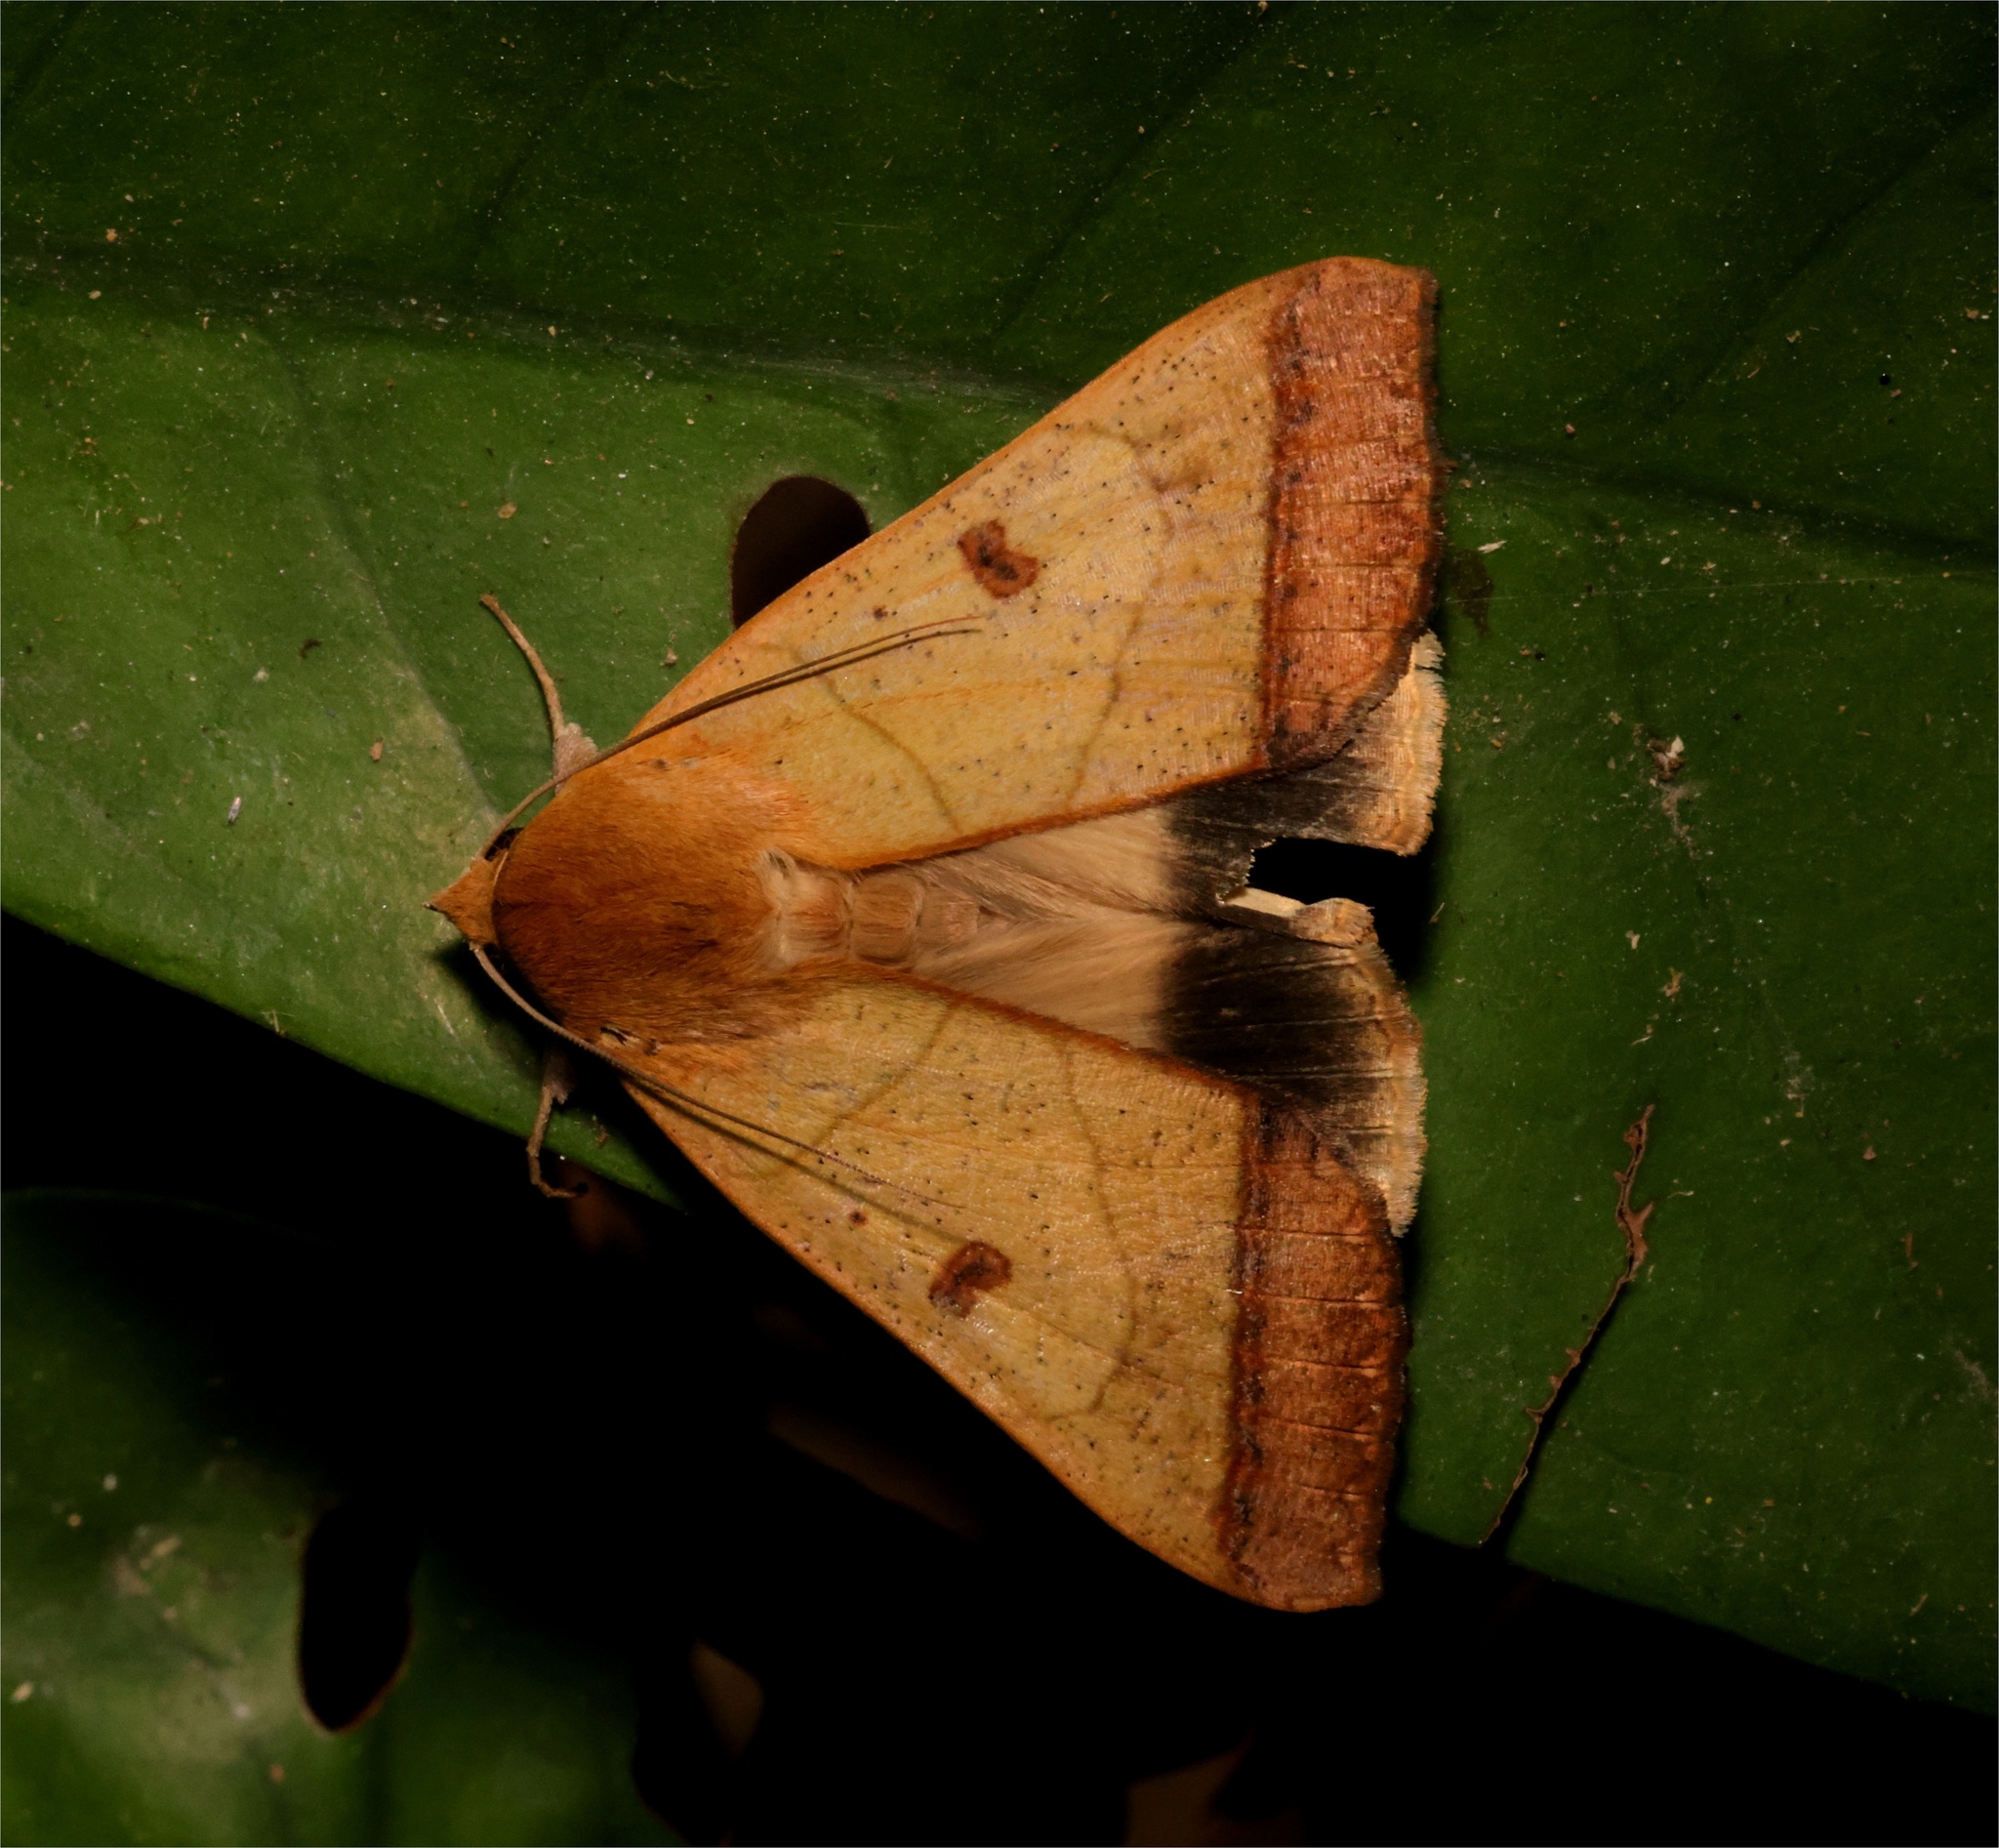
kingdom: Animalia
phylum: Arthropoda
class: Insecta
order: Lepidoptera
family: Erebidae
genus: Ophiusa
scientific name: Ophiusa trapezium
